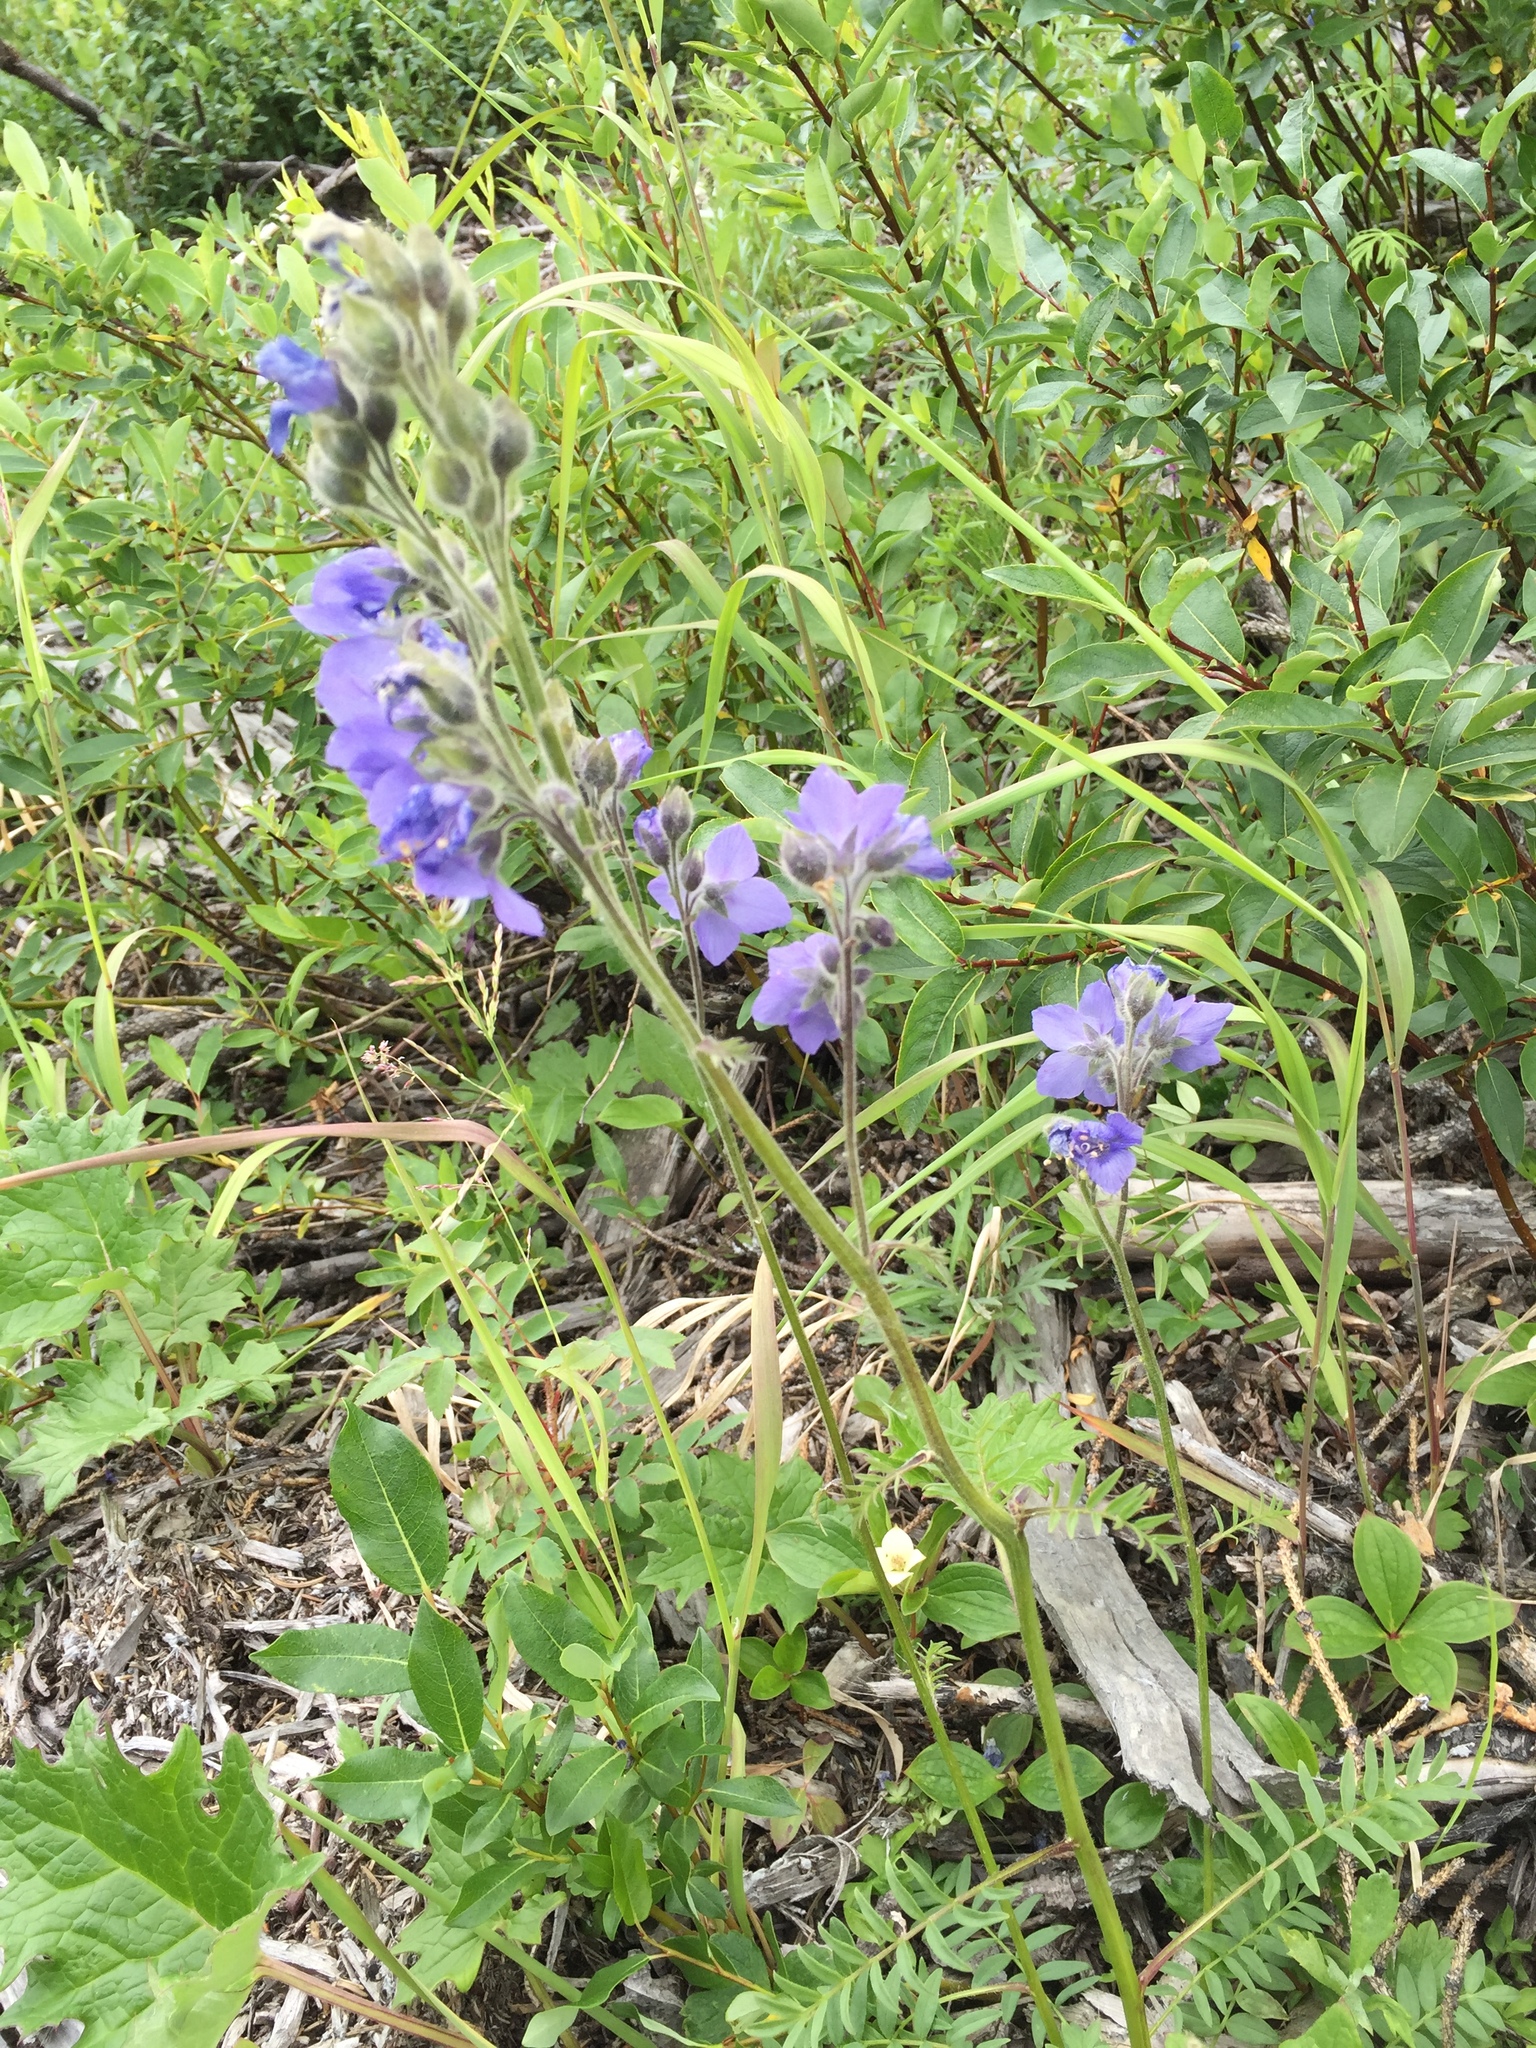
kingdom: Plantae
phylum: Tracheophyta
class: Magnoliopsida
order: Ericales
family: Polemoniaceae
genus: Polemonium
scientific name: Polemonium acutiflorum
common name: Tall jacob's-ladder
